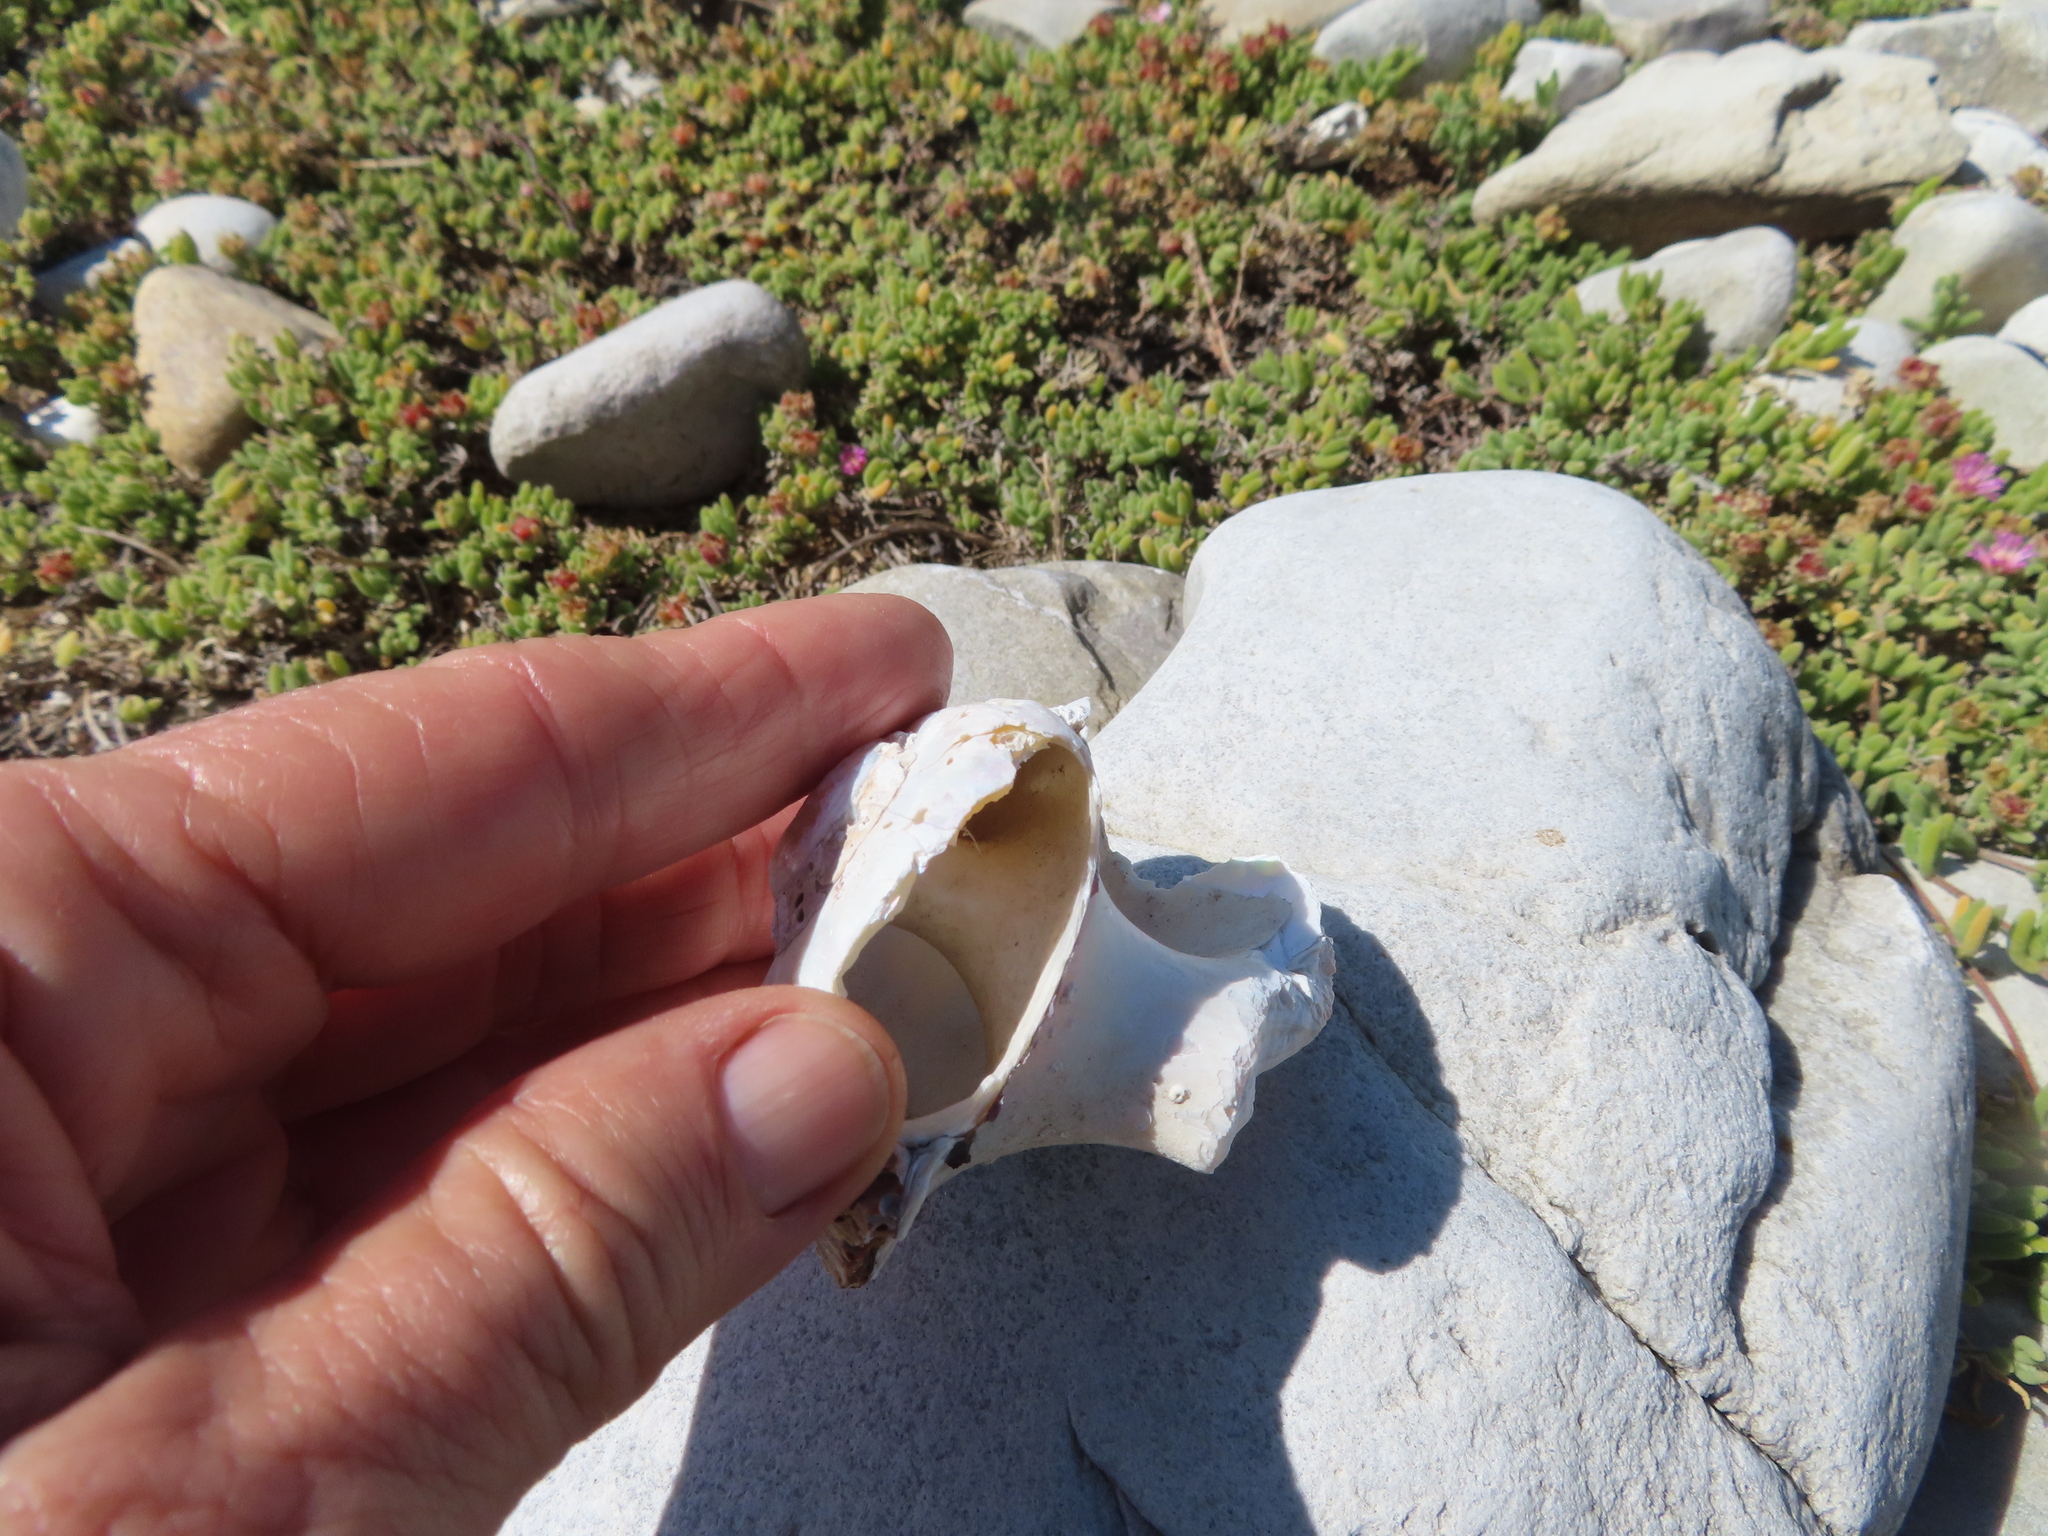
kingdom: Animalia
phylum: Mollusca
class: Gastropoda
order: Trochida
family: Turbinidae
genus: Turbo
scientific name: Turbo sarmaticus
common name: South african turban
